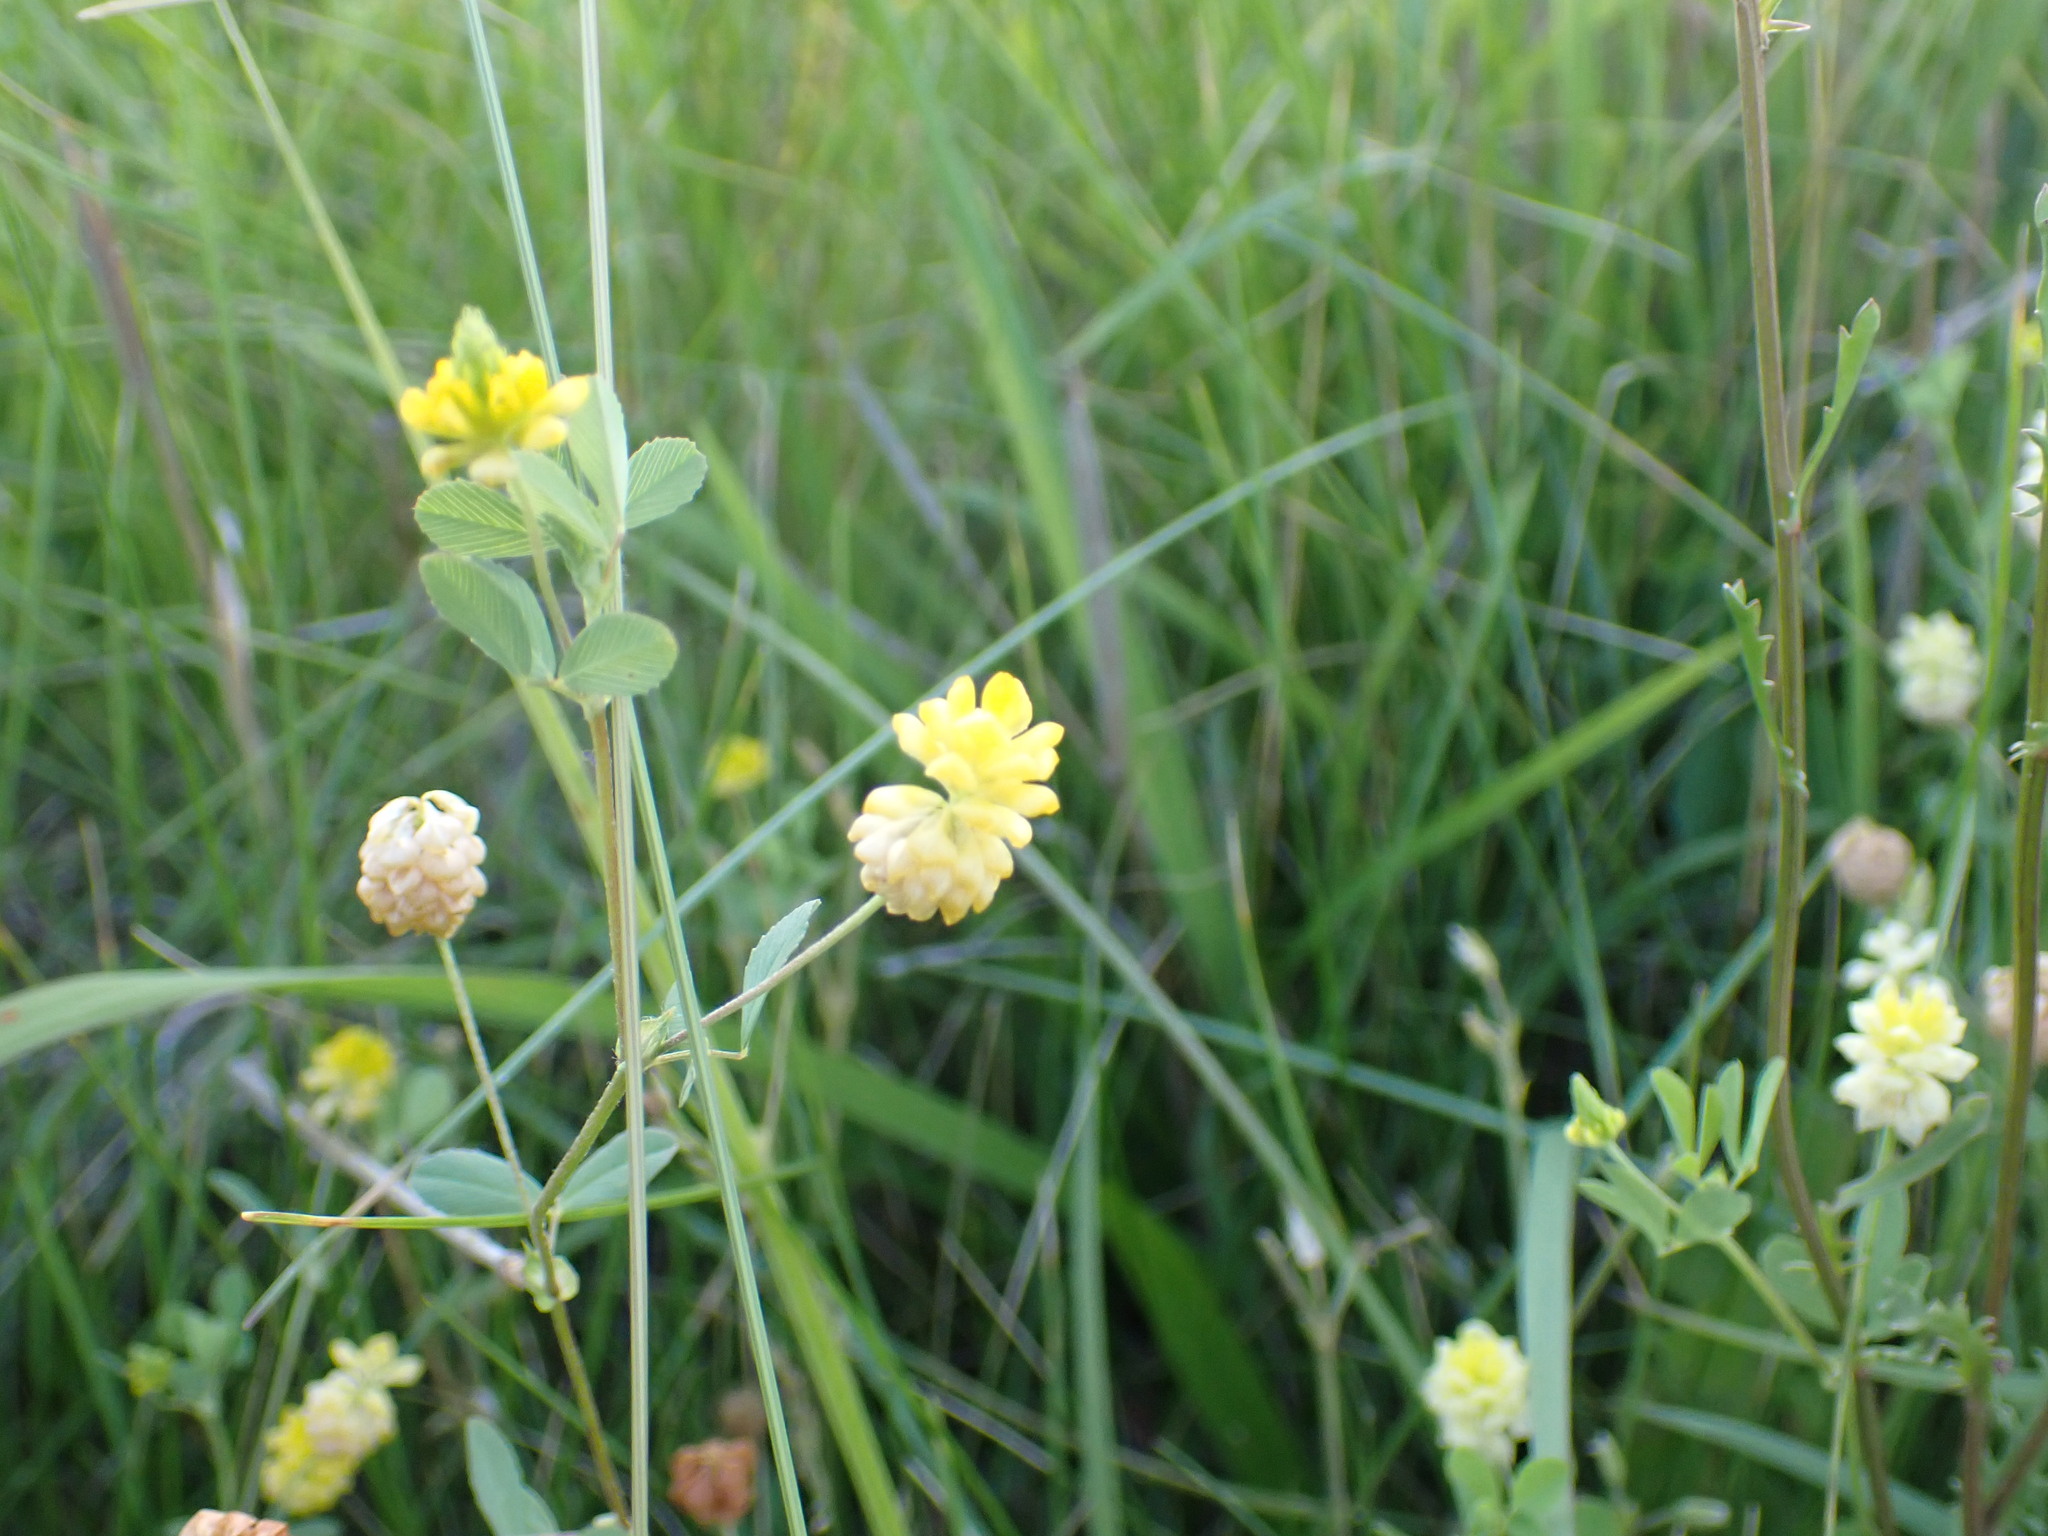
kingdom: Plantae
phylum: Tracheophyta
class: Magnoliopsida
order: Fabales
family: Fabaceae
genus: Trifolium
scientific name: Trifolium campestre
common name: Field clover
